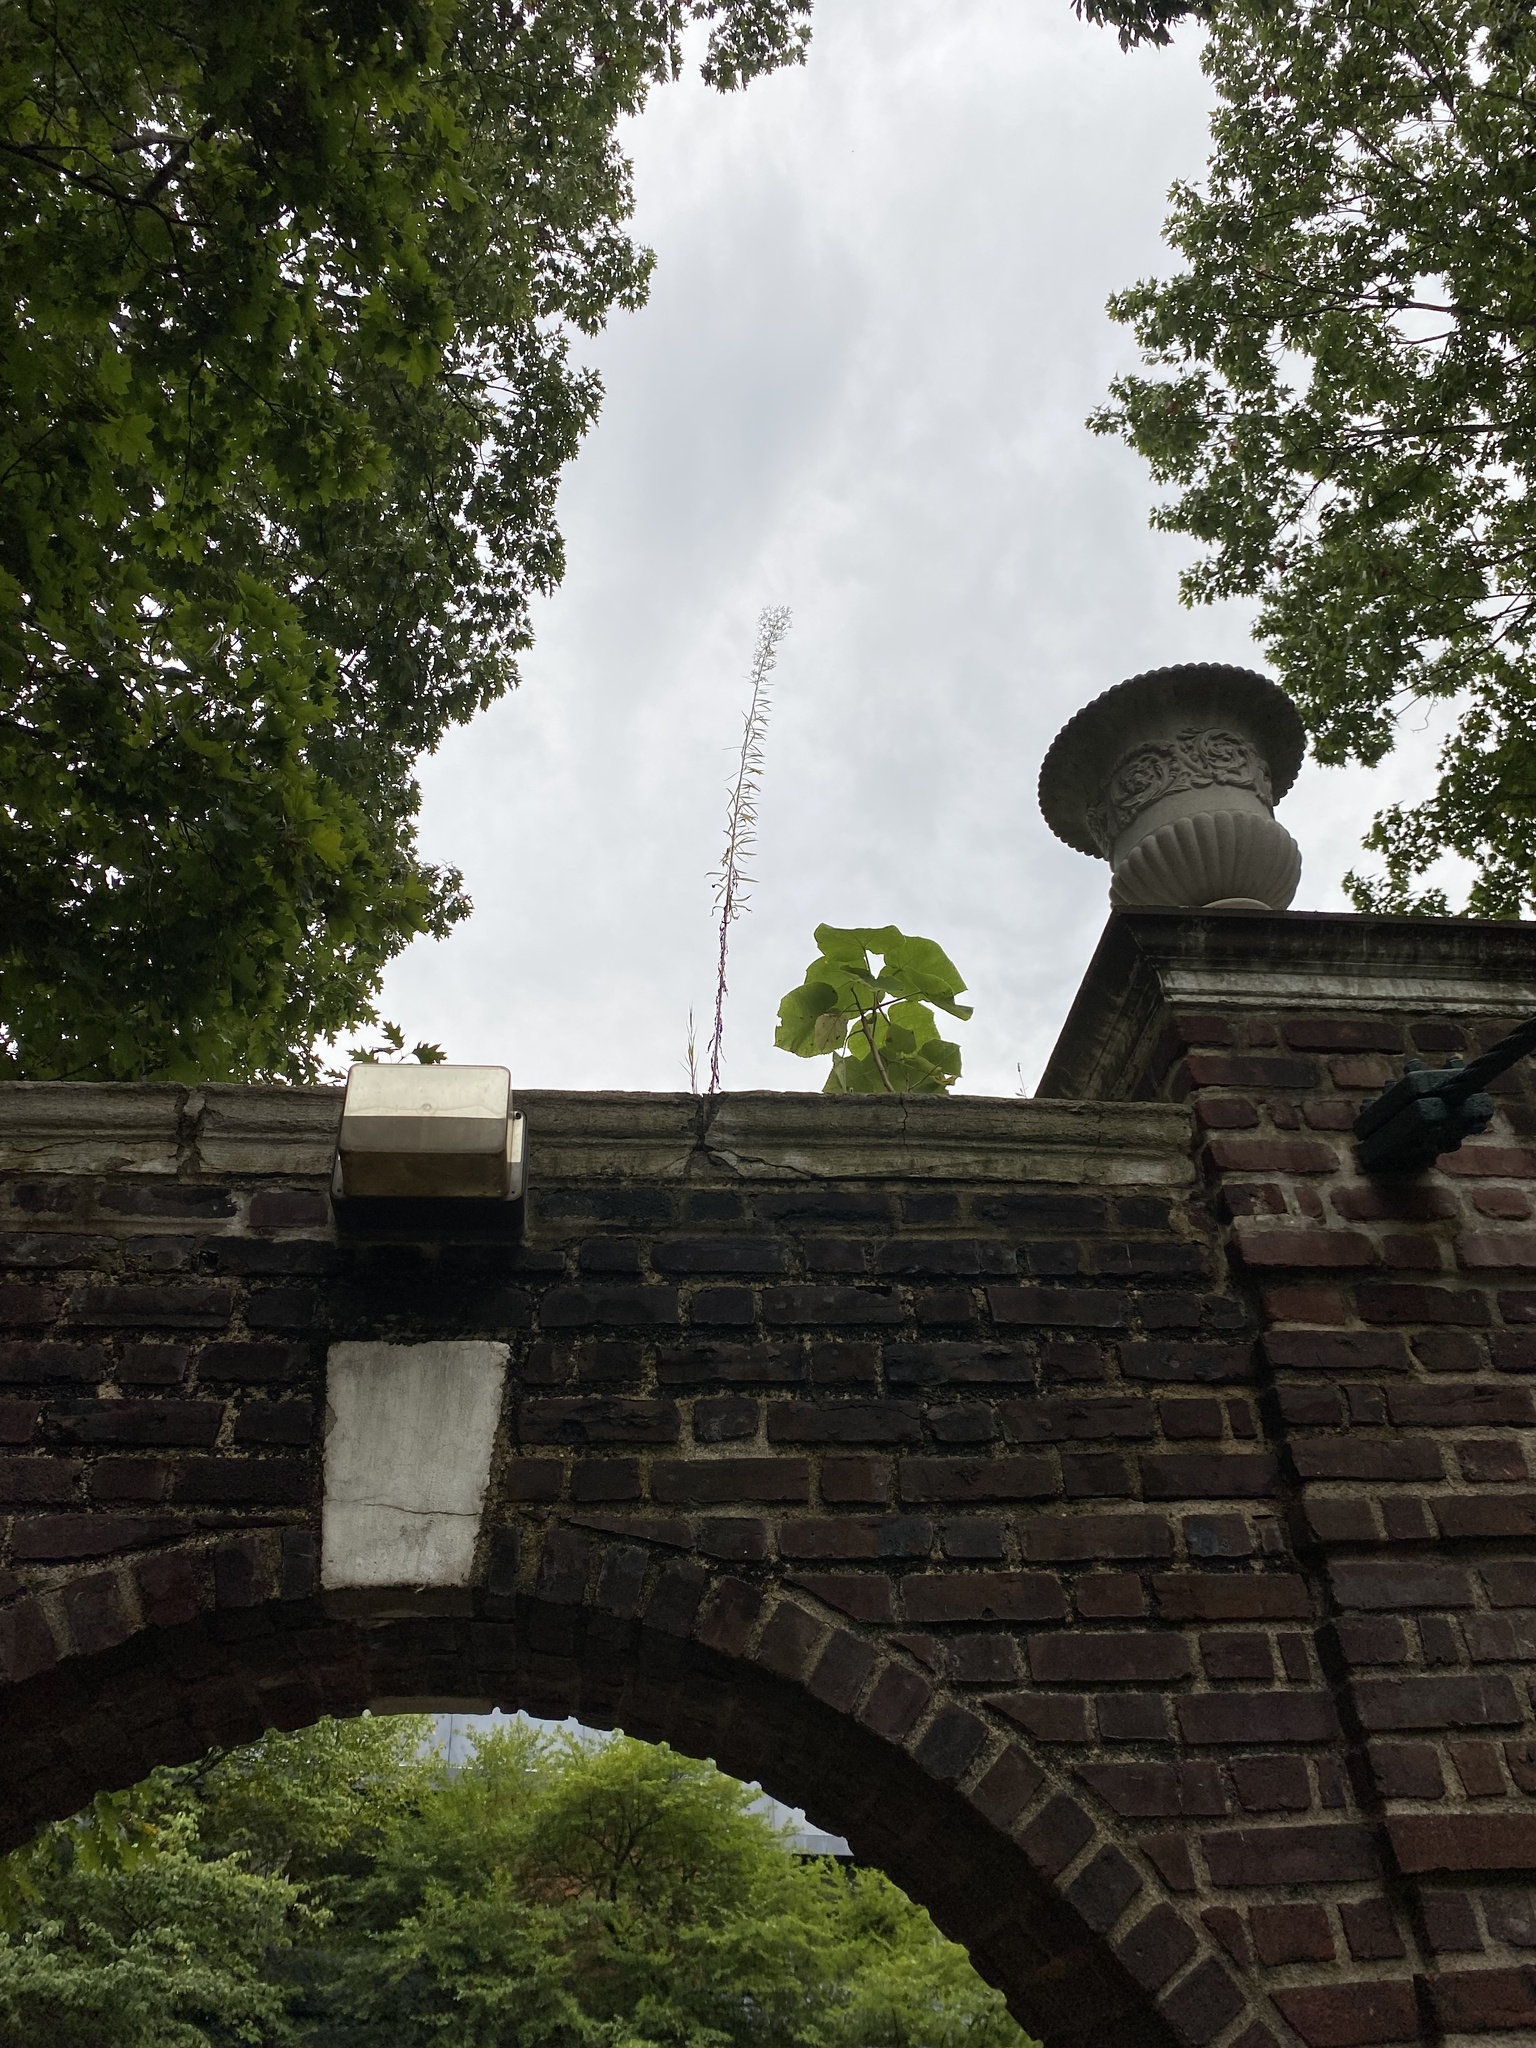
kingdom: Plantae
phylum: Tracheophyta
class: Magnoliopsida
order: Lamiales
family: Paulowniaceae
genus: Paulownia
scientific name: Paulownia tomentosa
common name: Foxglove-tree
